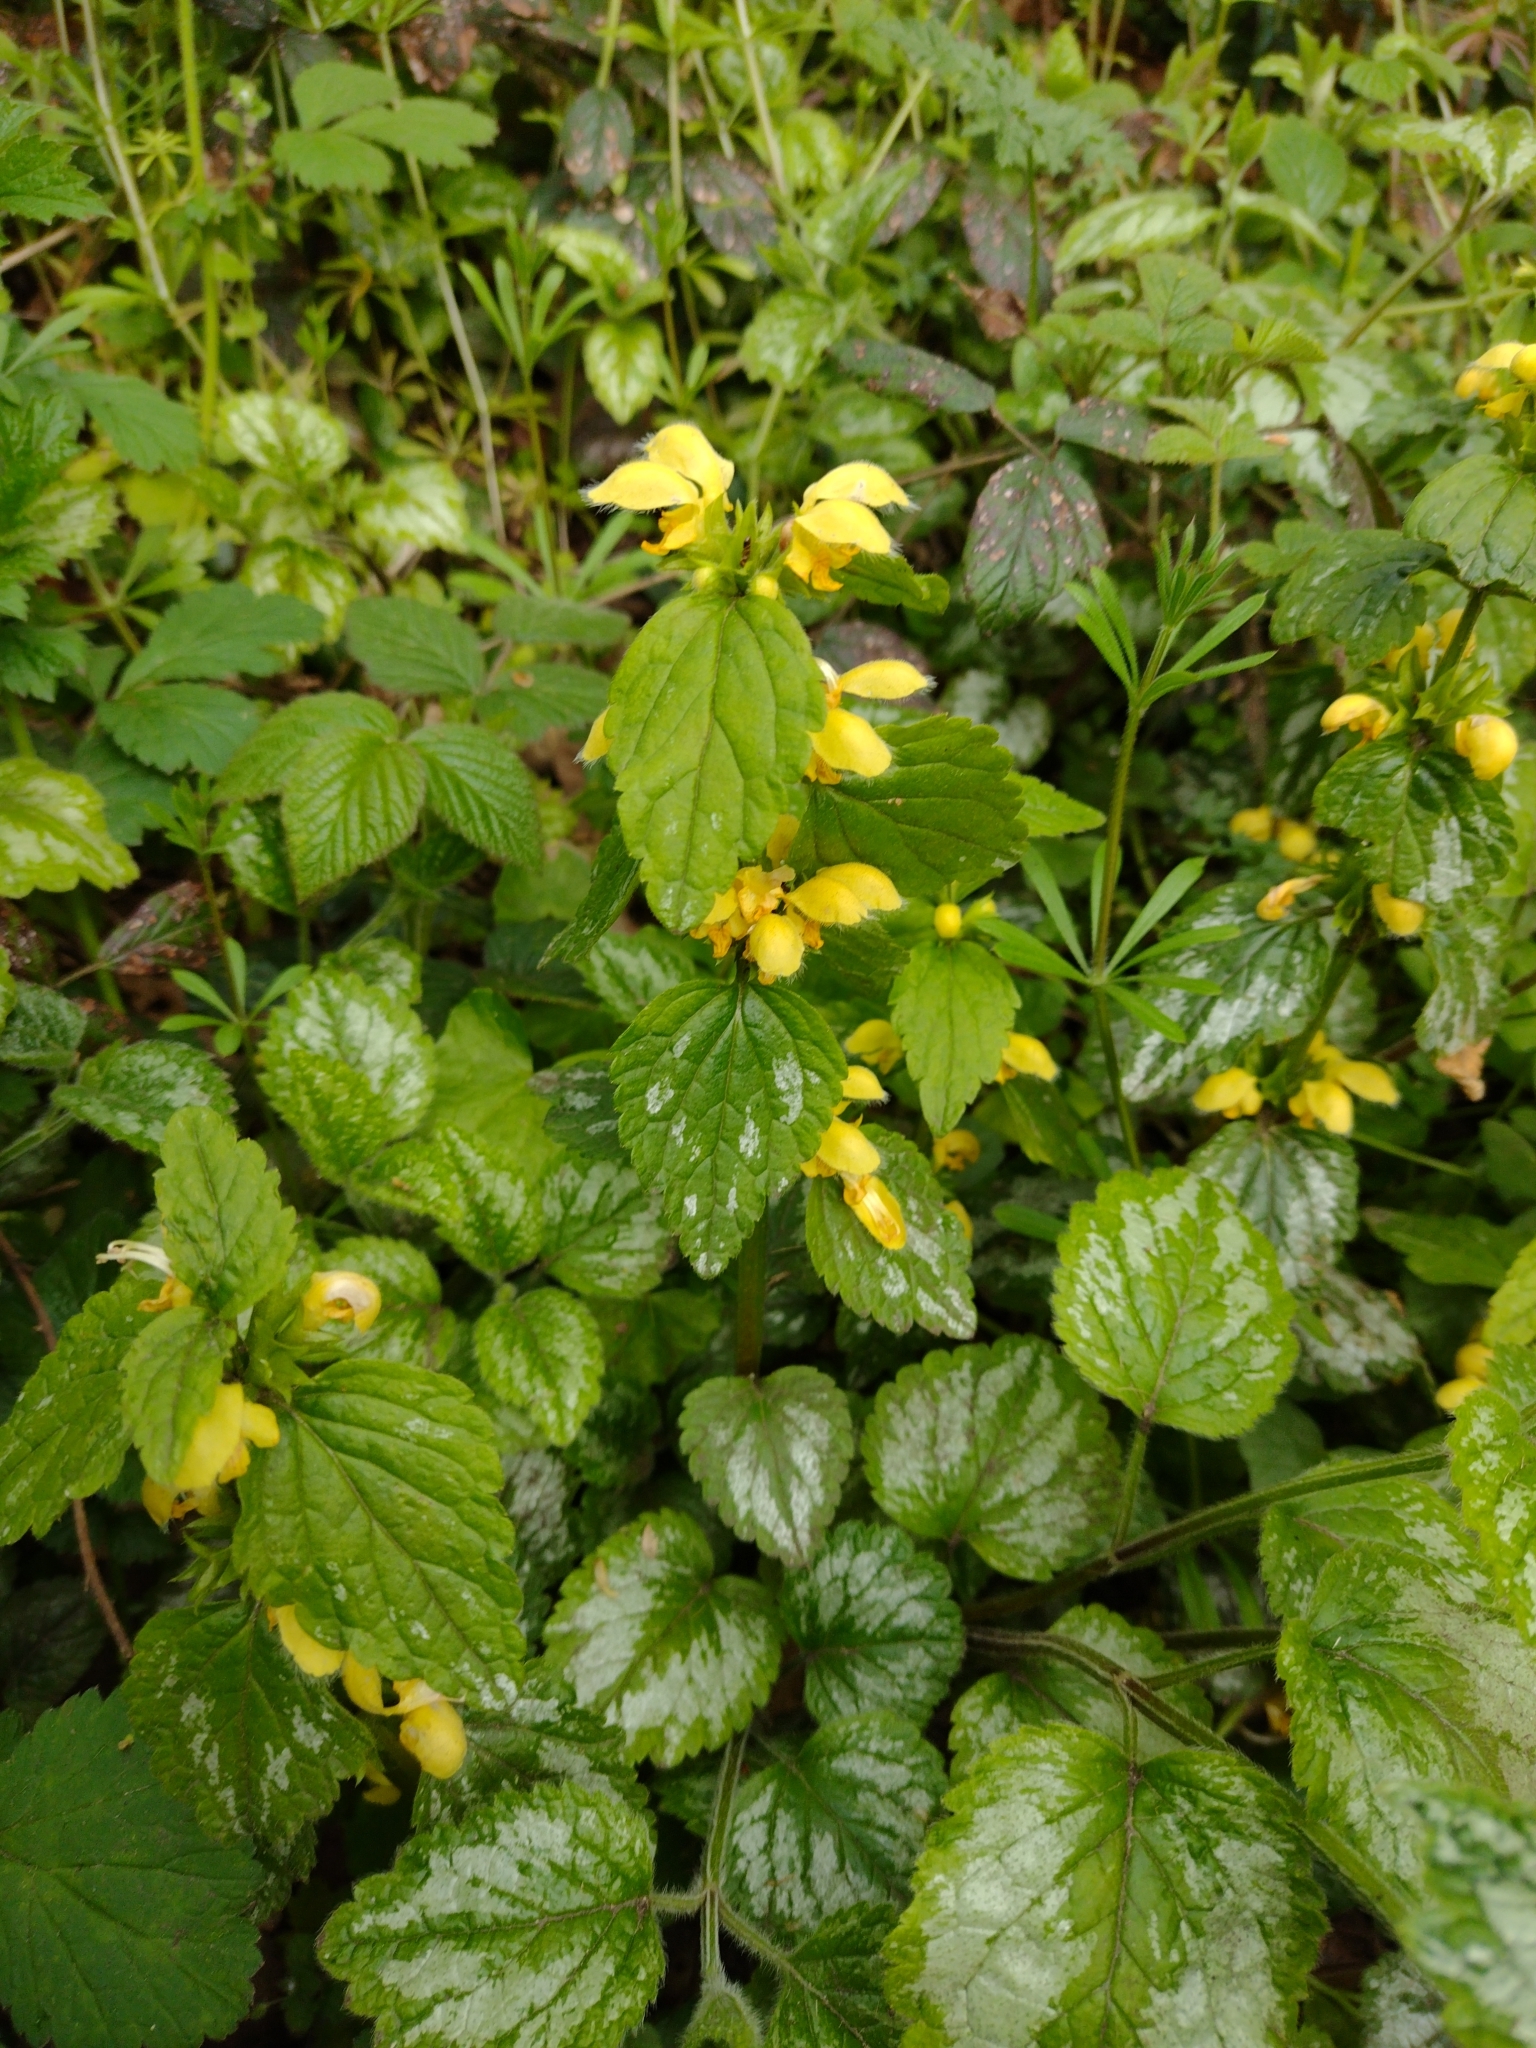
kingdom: Plantae
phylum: Tracheophyta
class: Magnoliopsida
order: Lamiales
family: Lamiaceae
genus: Lamium
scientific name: Lamium galeobdolon
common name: Yellow archangel
